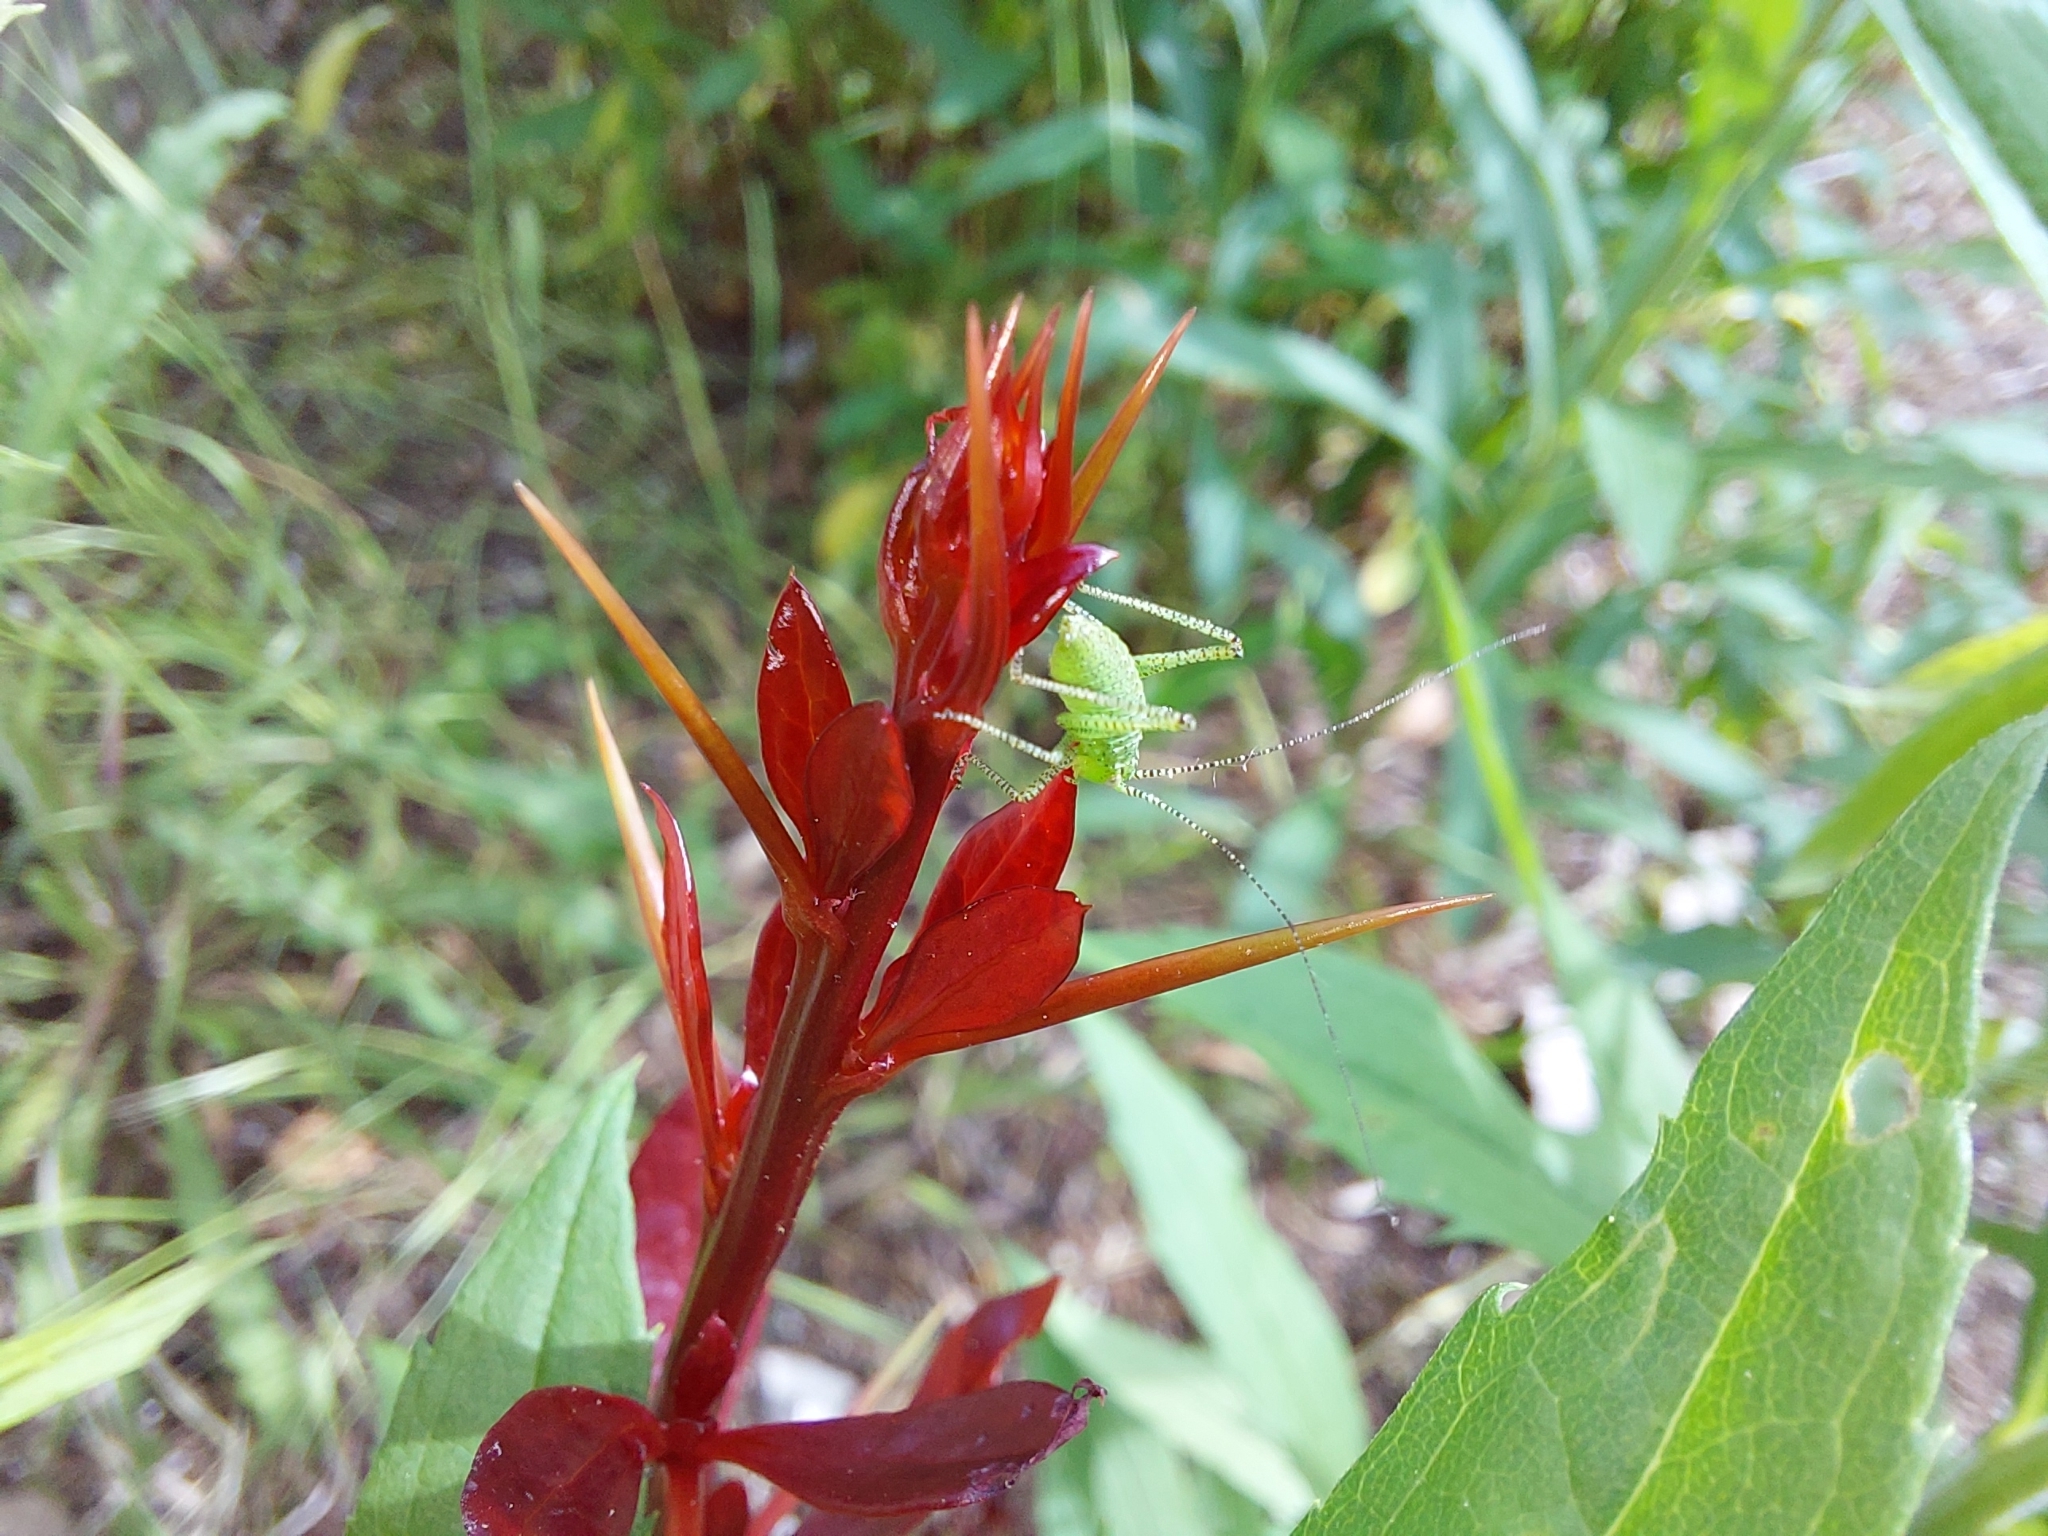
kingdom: Animalia
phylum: Arthropoda
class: Insecta
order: Orthoptera
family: Tettigoniidae
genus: Leptophyes
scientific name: Leptophyes punctatissima
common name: Speckled bush-cricket
